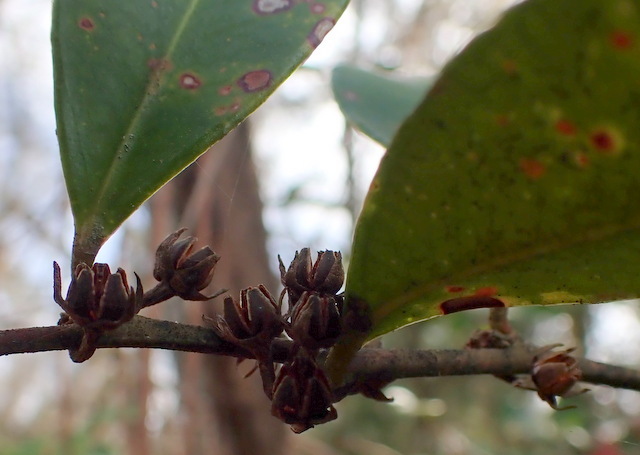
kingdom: Plantae
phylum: Tracheophyta
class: Magnoliopsida
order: Ericales
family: Ericaceae
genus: Lyonia
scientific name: Lyonia lucida
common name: Fetterbush
